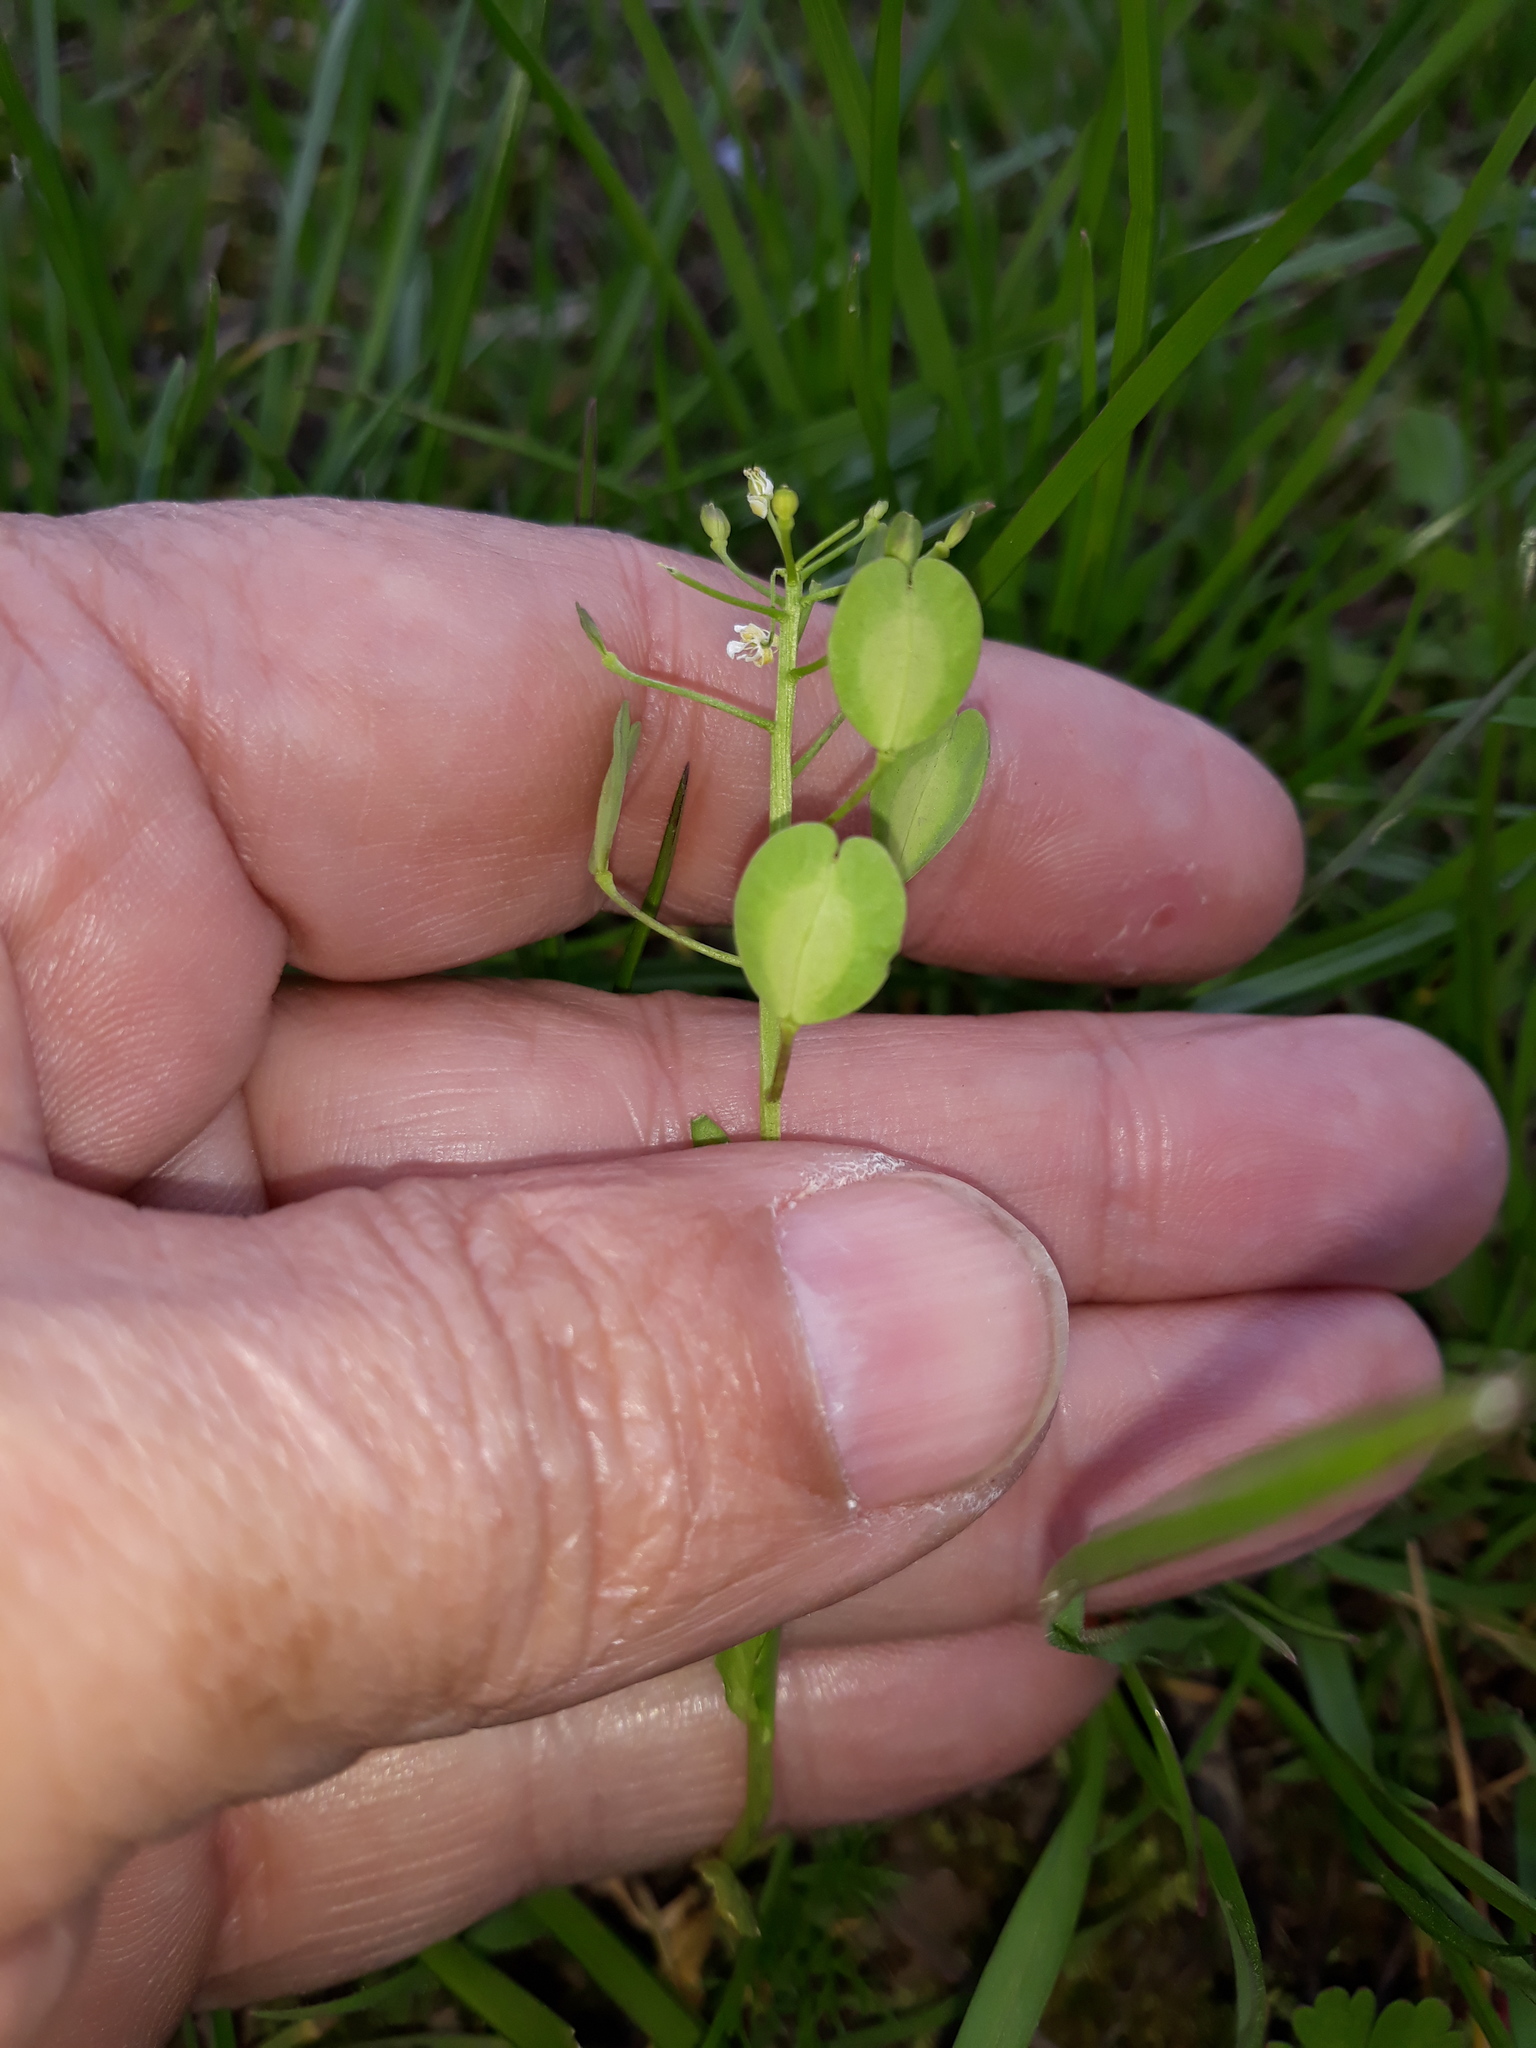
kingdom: Plantae
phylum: Tracheophyta
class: Magnoliopsida
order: Brassicales
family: Brassicaceae
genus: Thlaspi
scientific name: Thlaspi arvense
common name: Field pennycress
